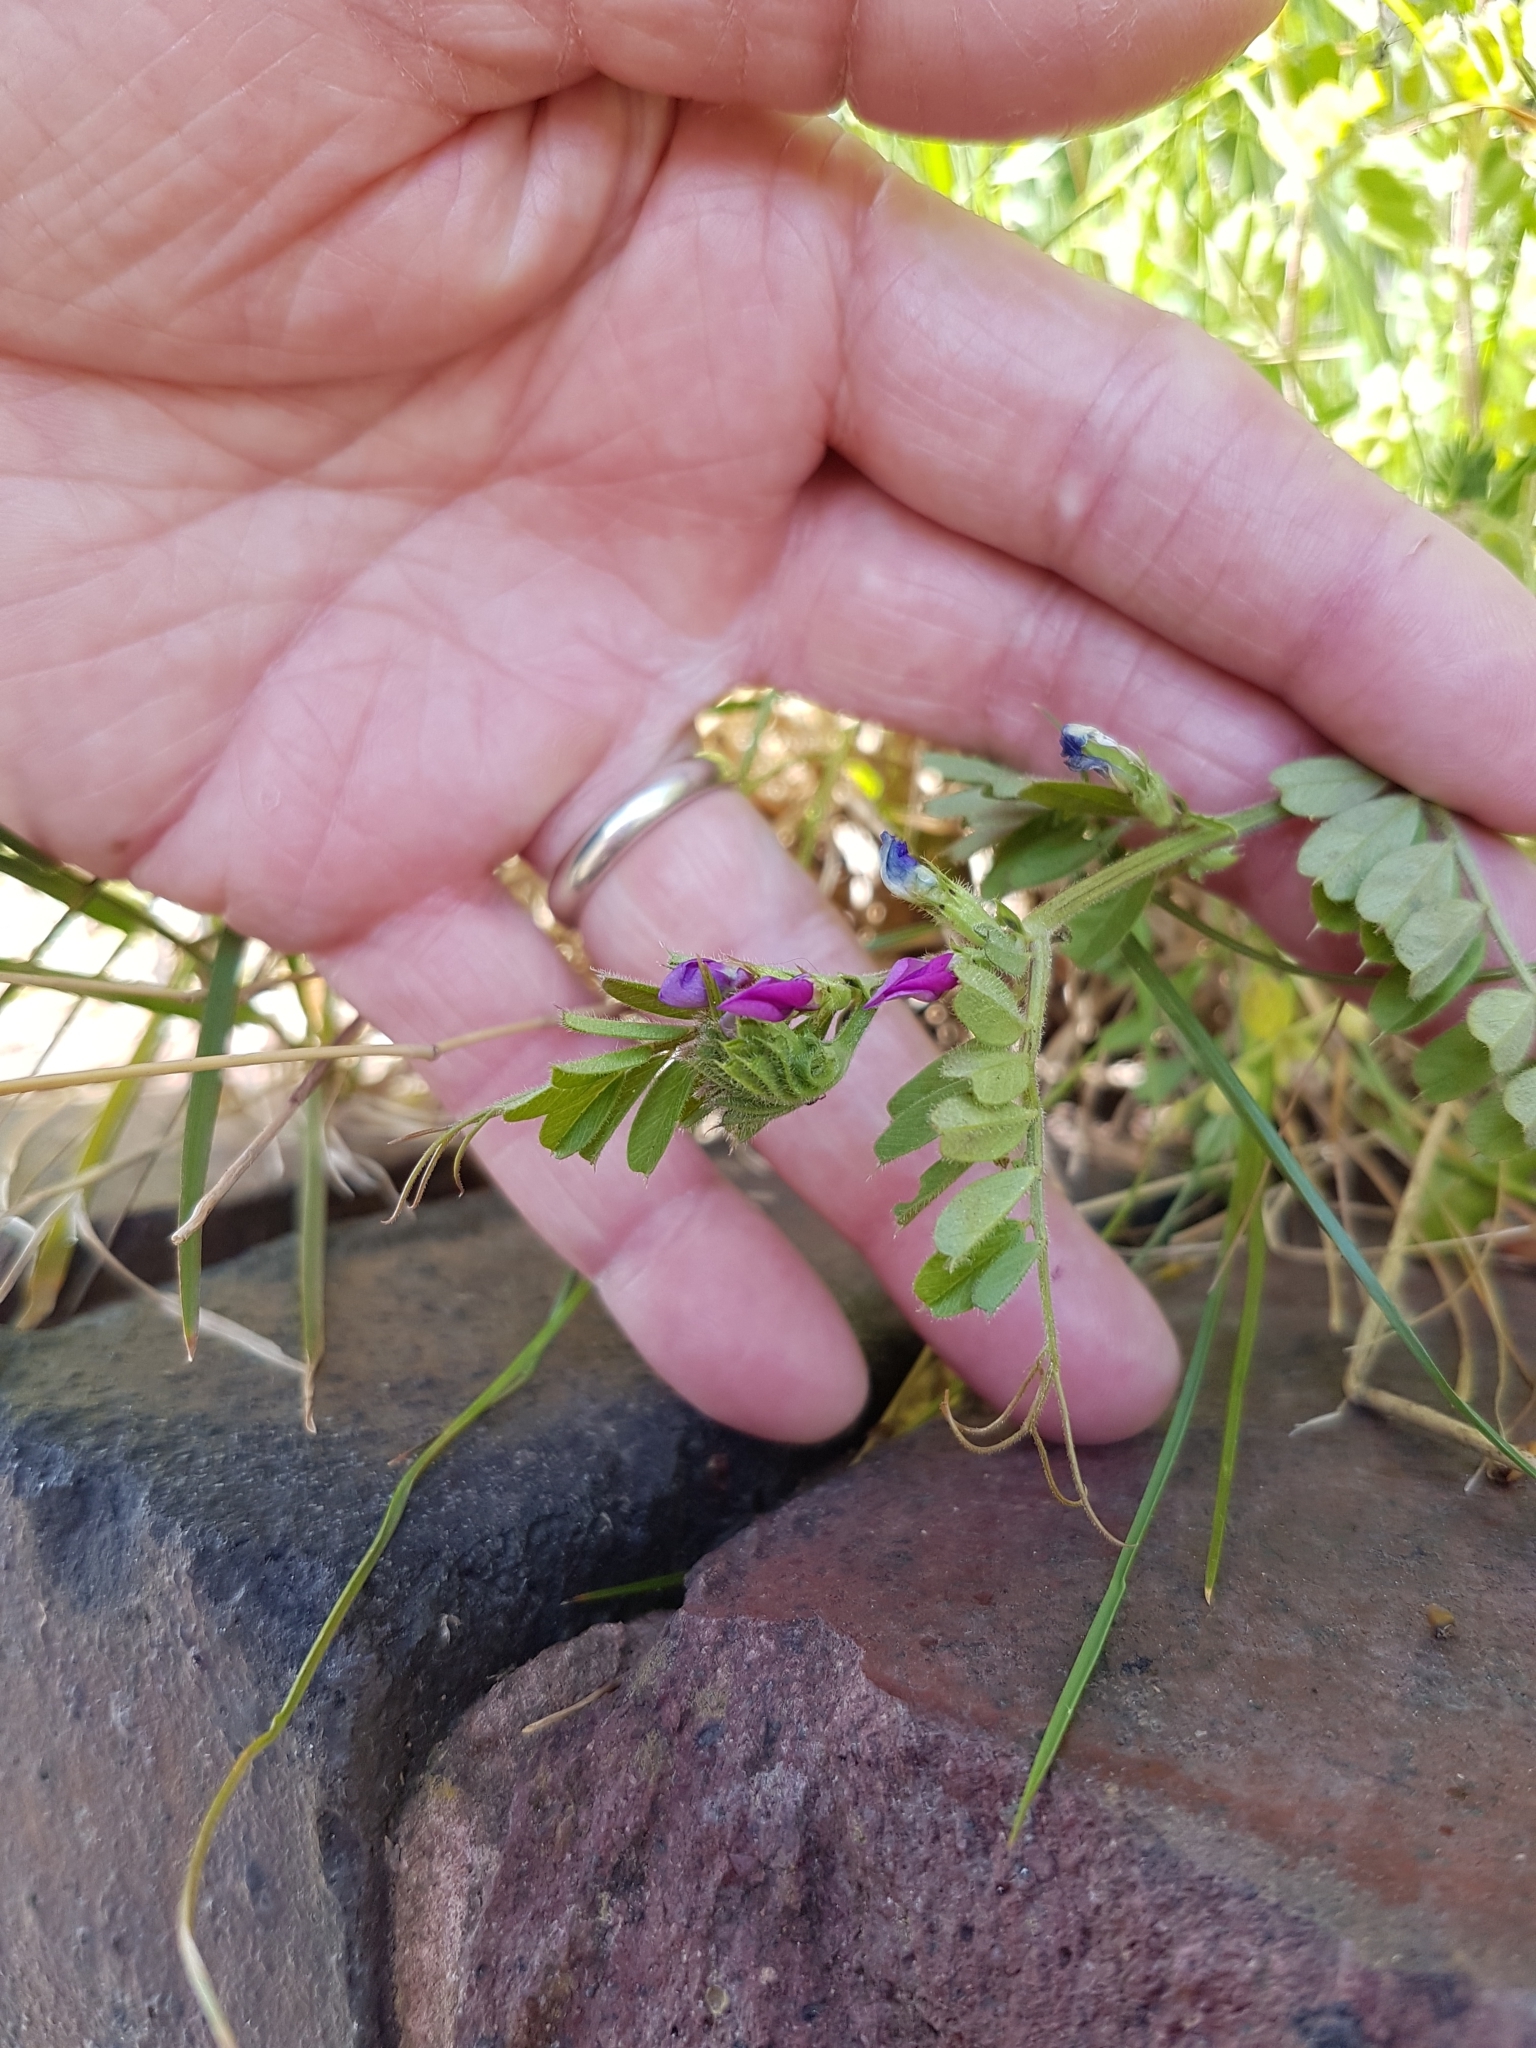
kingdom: Plantae
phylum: Tracheophyta
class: Magnoliopsida
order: Fabales
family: Fabaceae
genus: Vicia
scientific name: Vicia sativa
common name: Garden vetch
